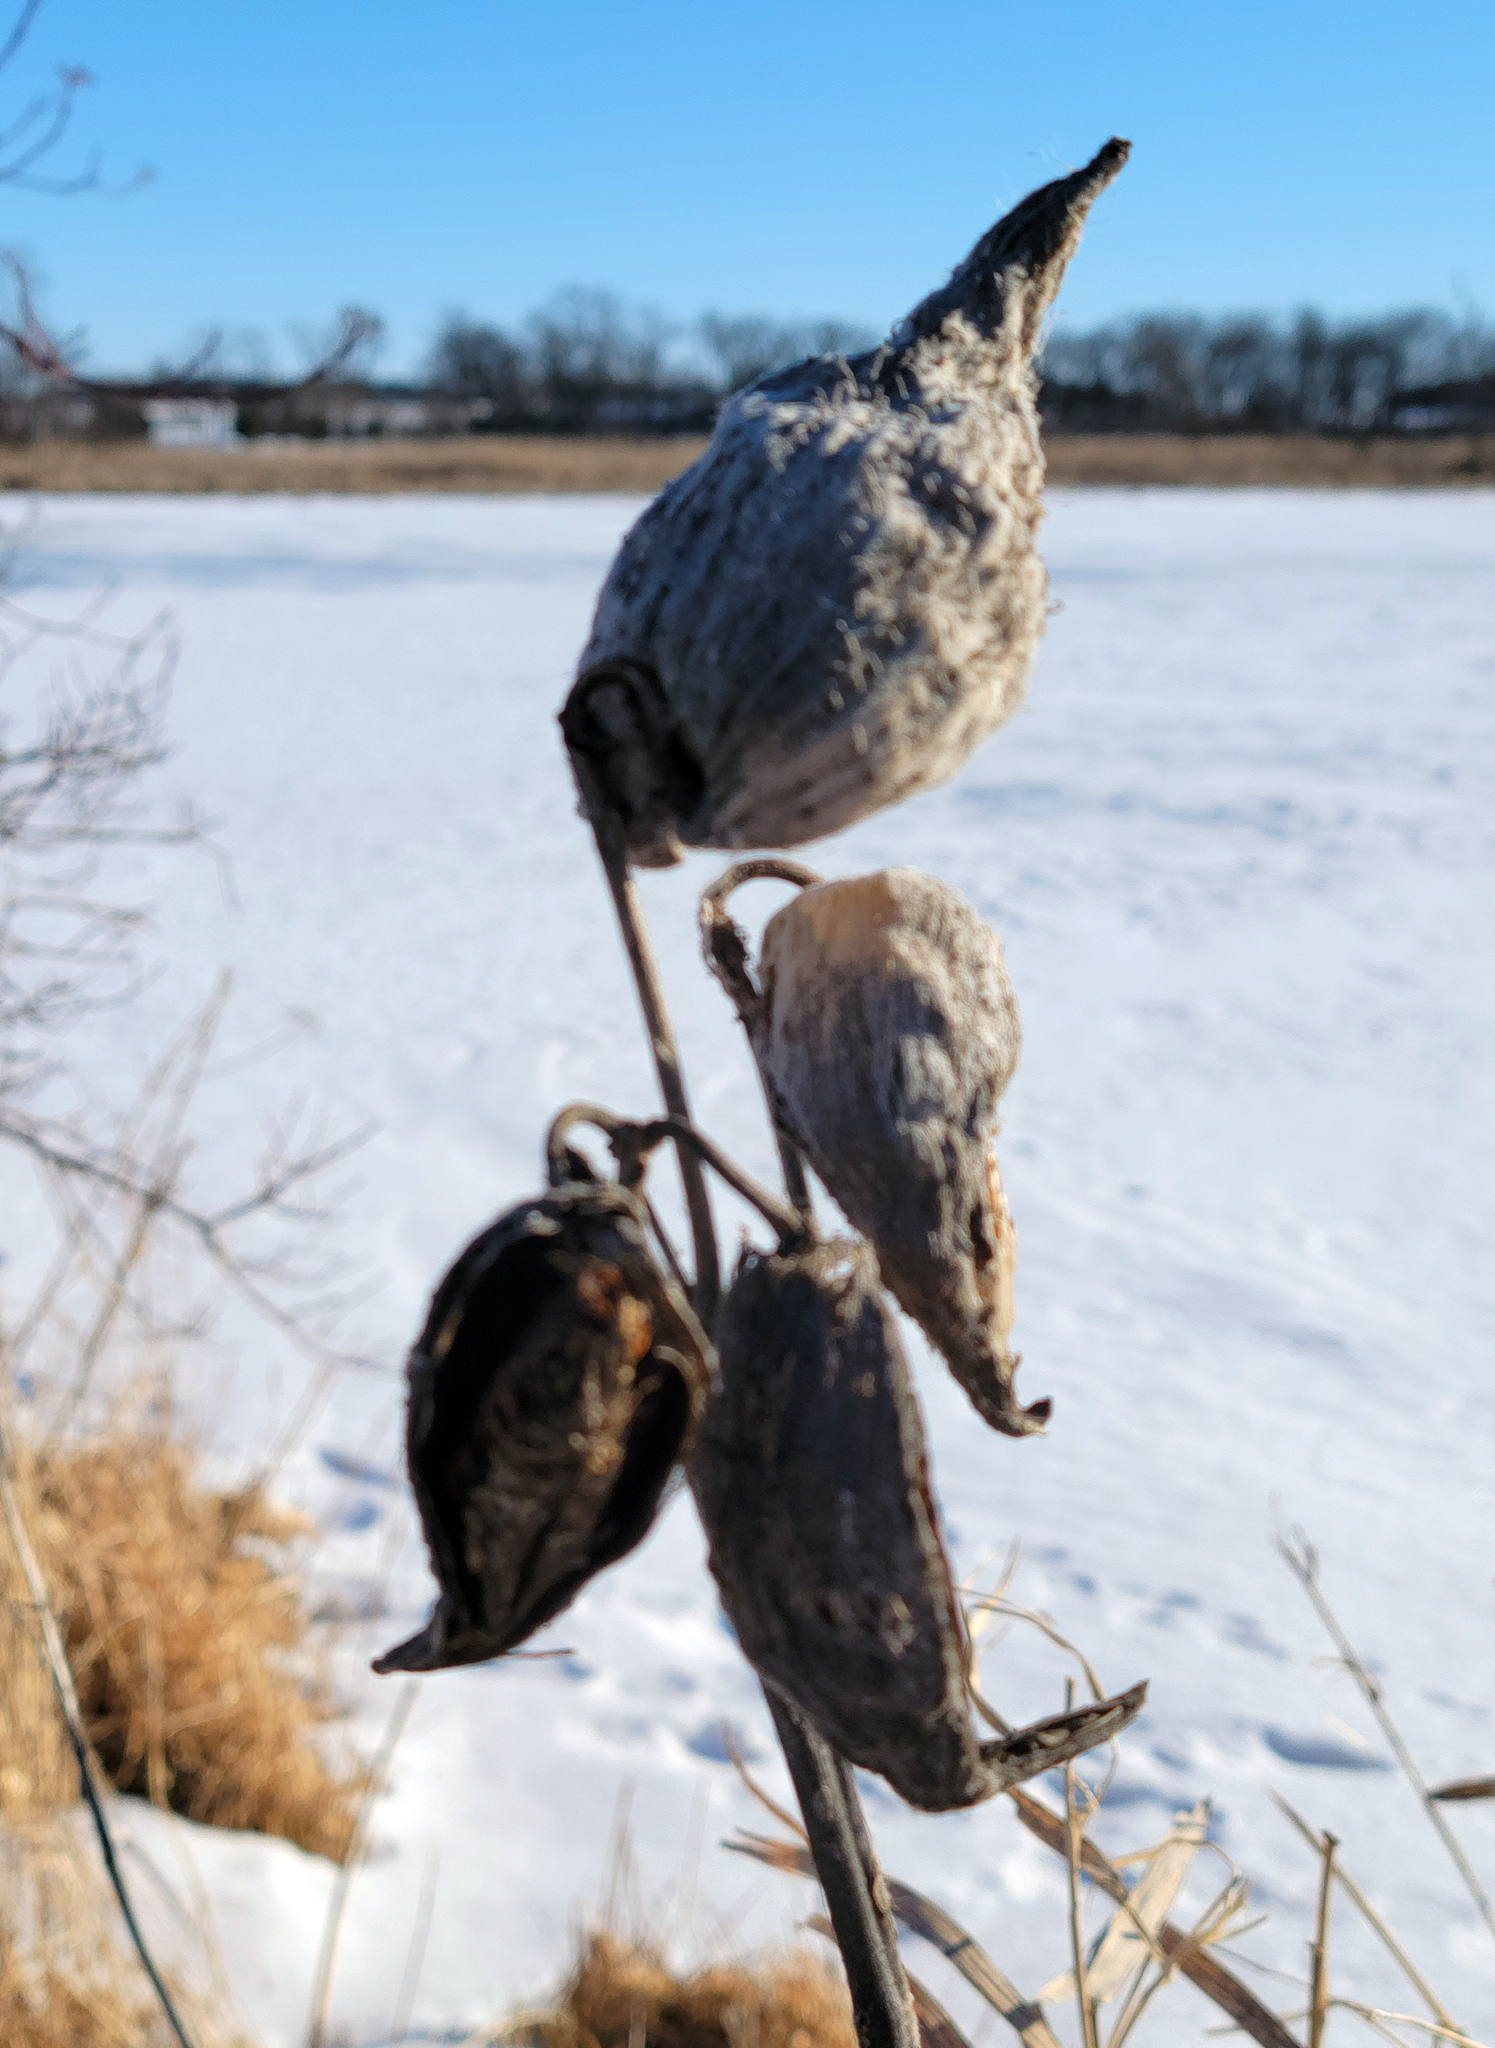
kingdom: Plantae
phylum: Tracheophyta
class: Magnoliopsida
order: Gentianales
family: Apocynaceae
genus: Asclepias
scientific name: Asclepias syriaca
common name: Common milkweed
